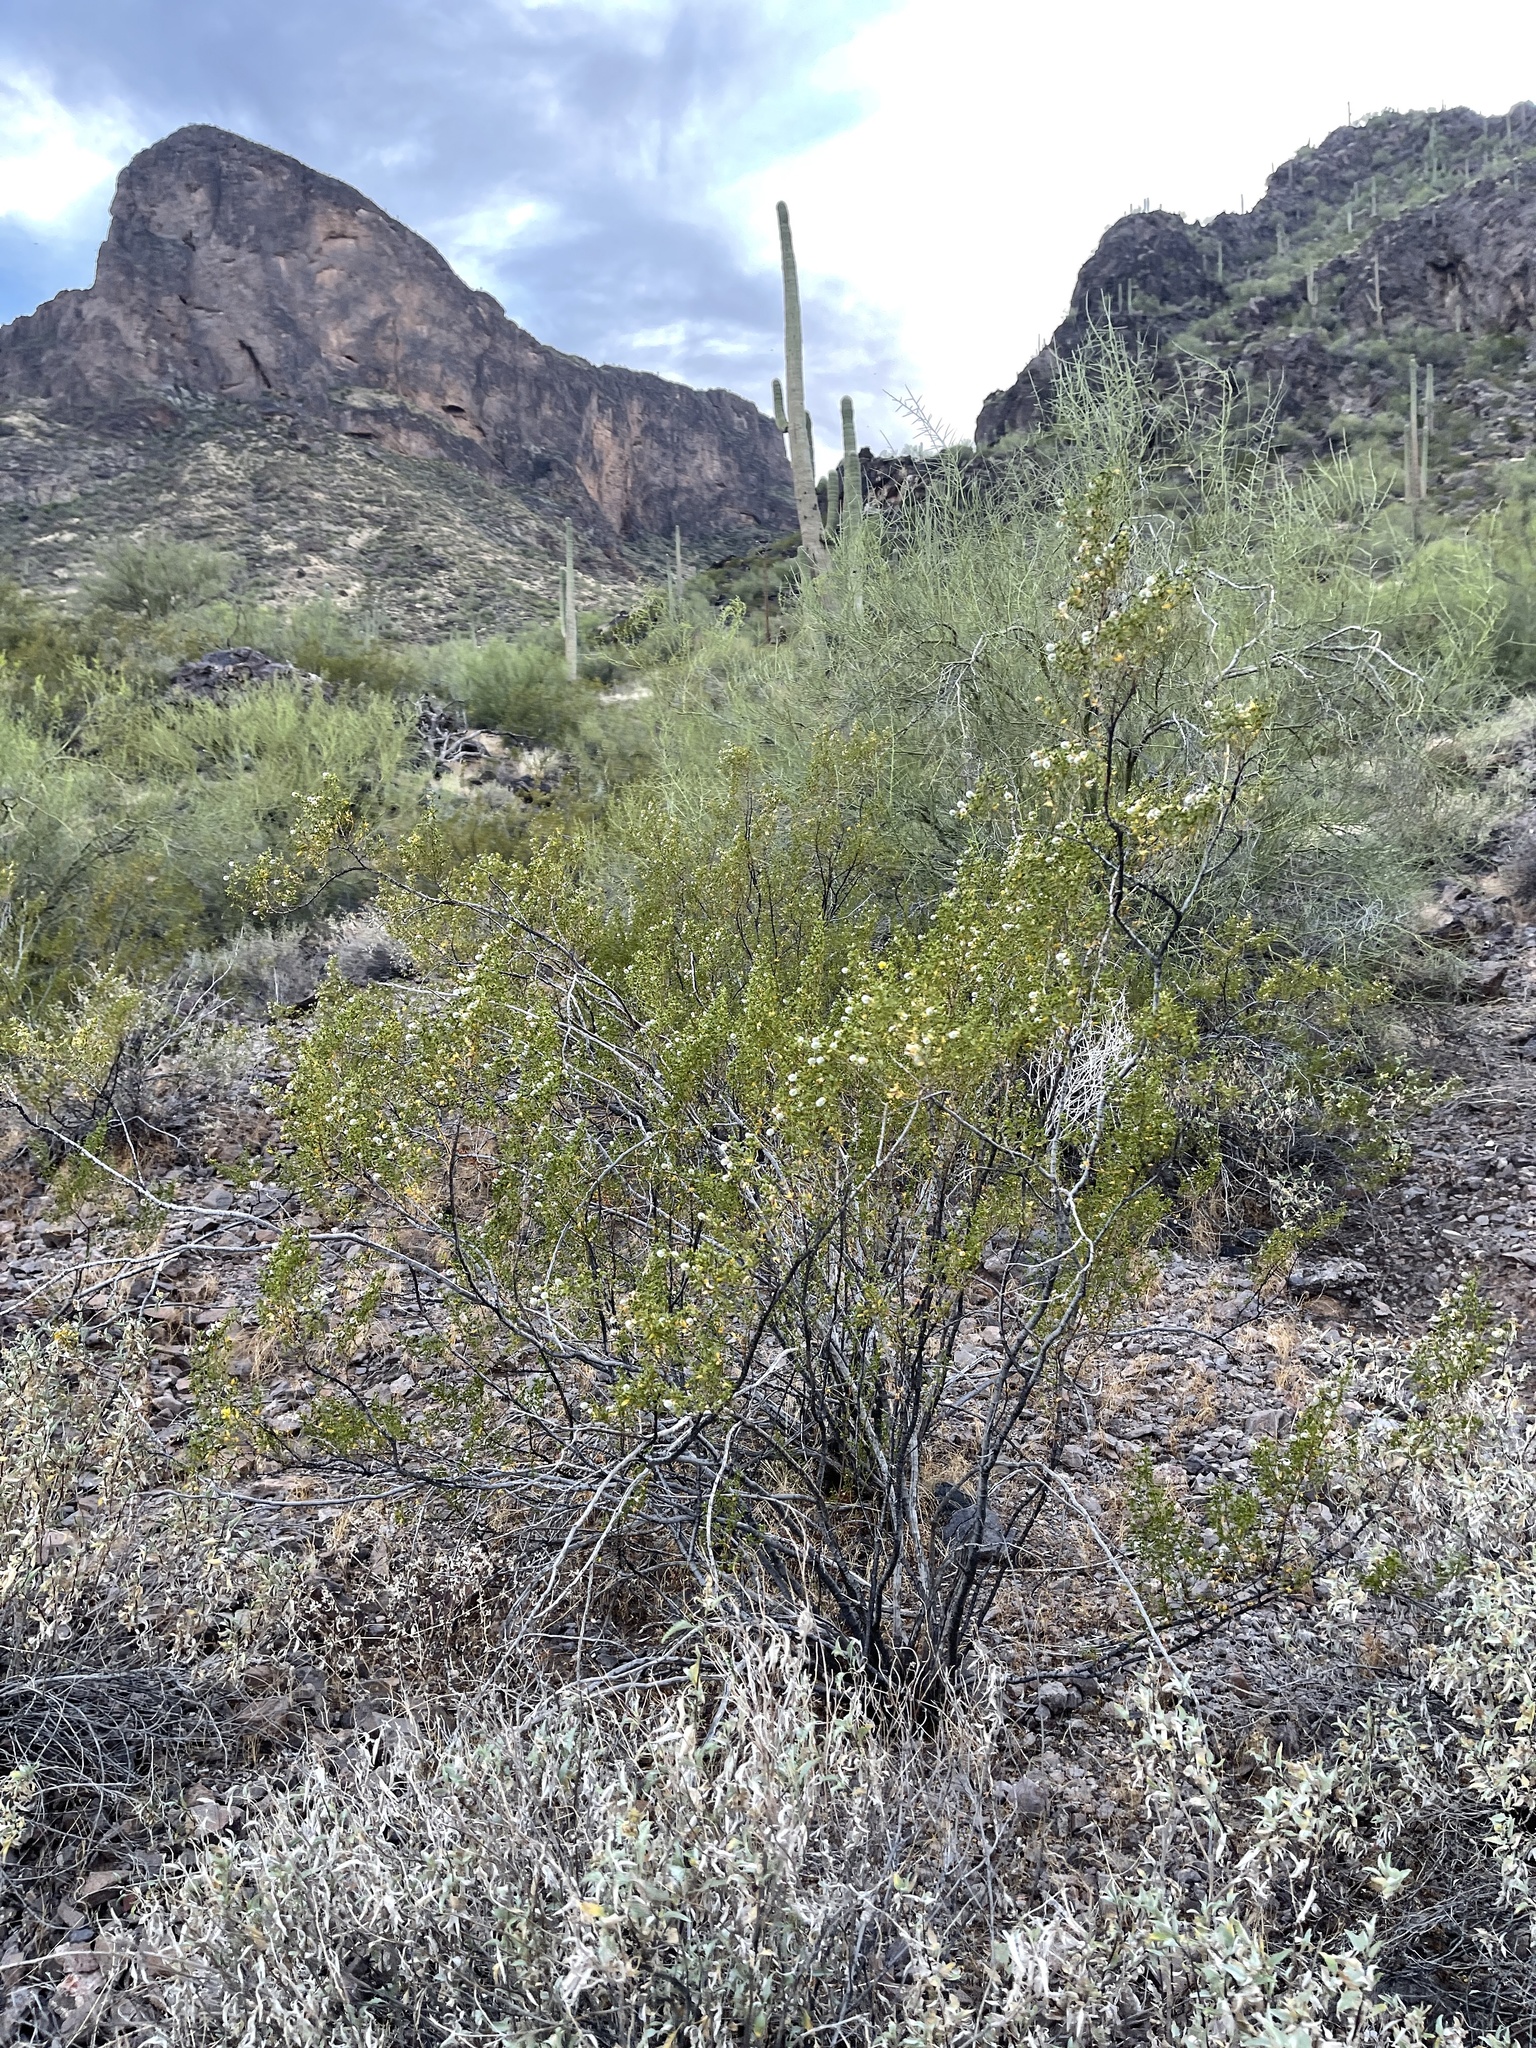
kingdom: Plantae
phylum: Tracheophyta
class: Magnoliopsida
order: Zygophyllales
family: Zygophyllaceae
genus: Larrea
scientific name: Larrea tridentata
